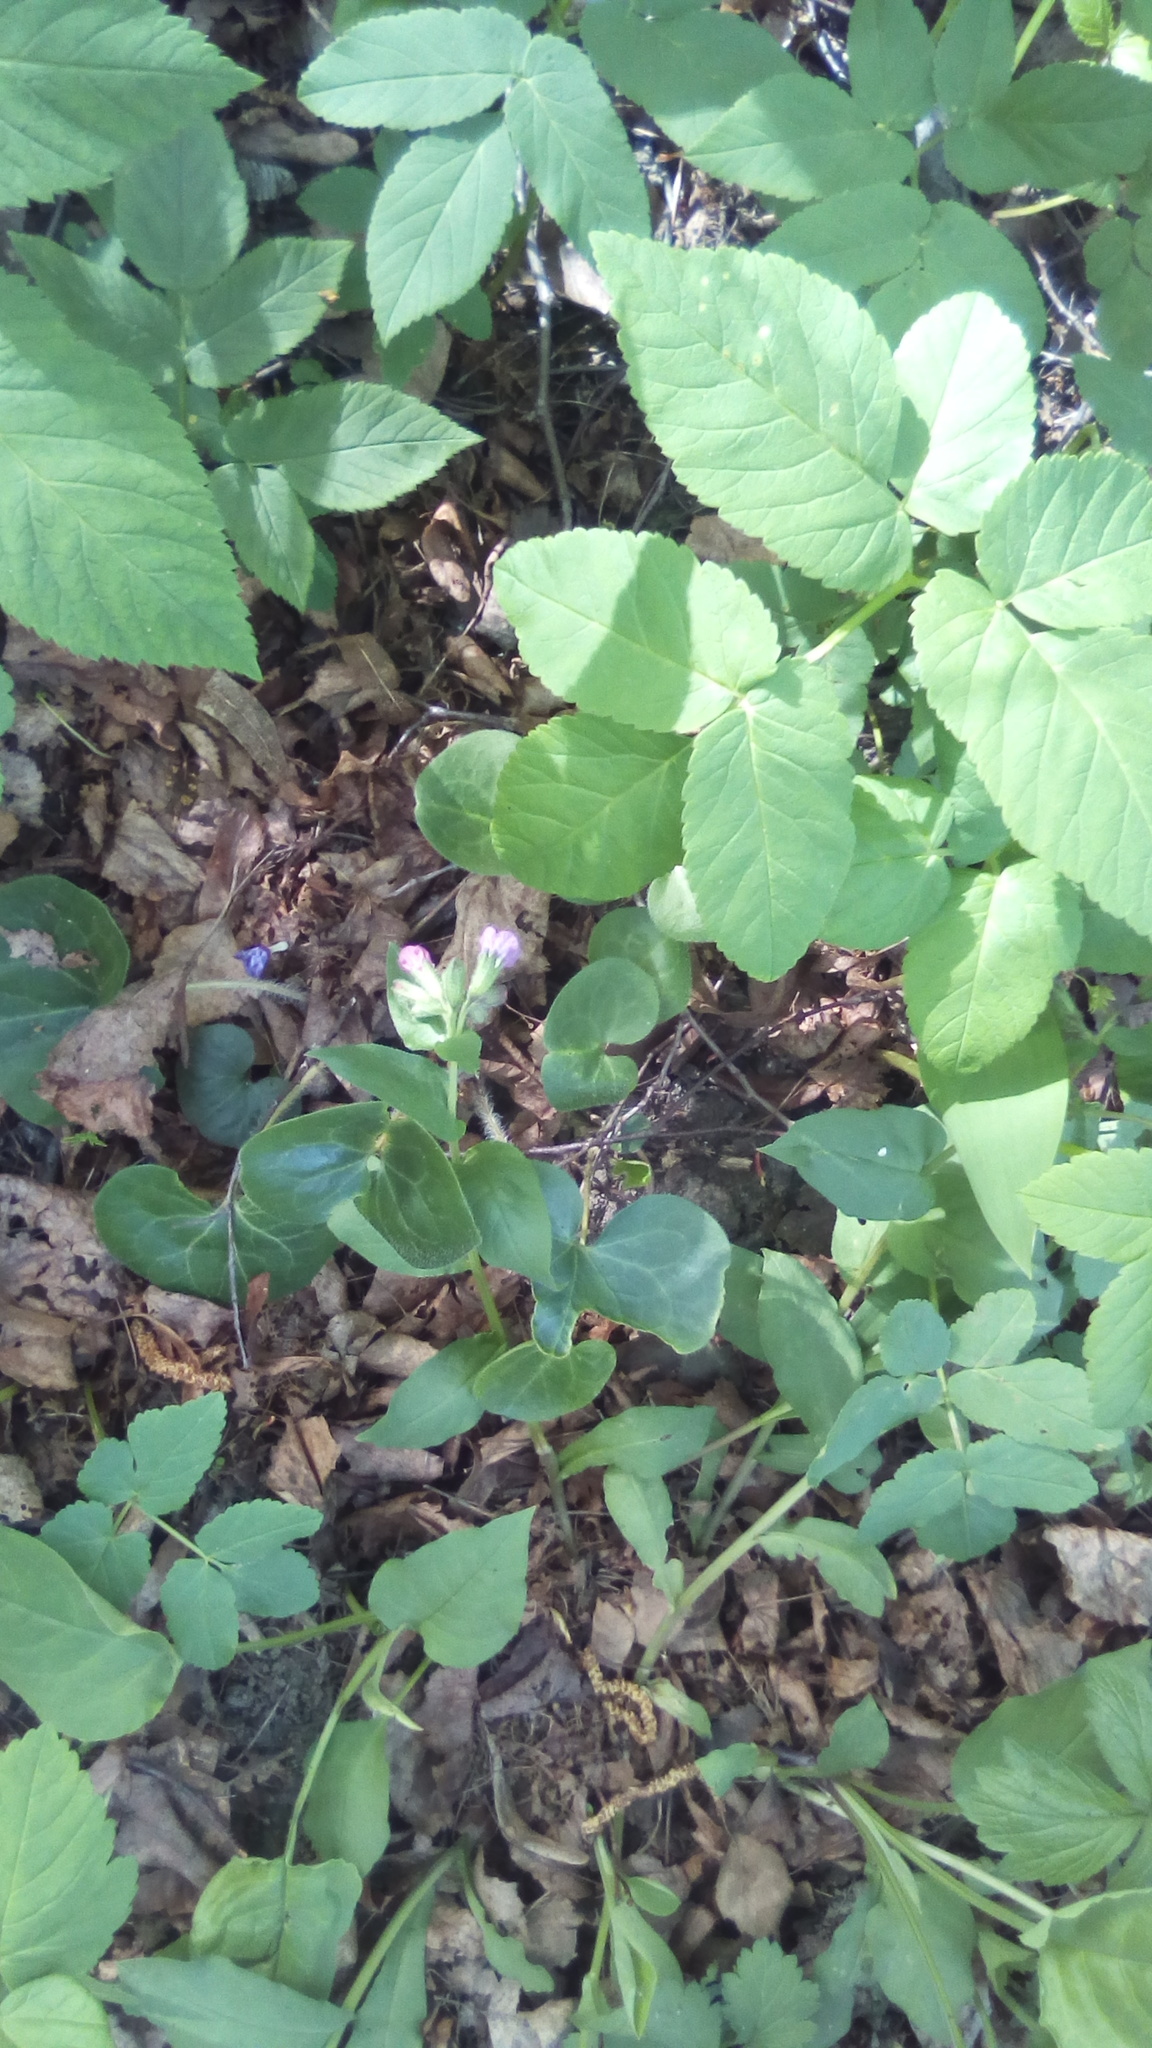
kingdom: Plantae
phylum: Tracheophyta
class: Magnoliopsida
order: Piperales
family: Aristolochiaceae
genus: Asarum
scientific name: Asarum europaeum
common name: Asarabacca
